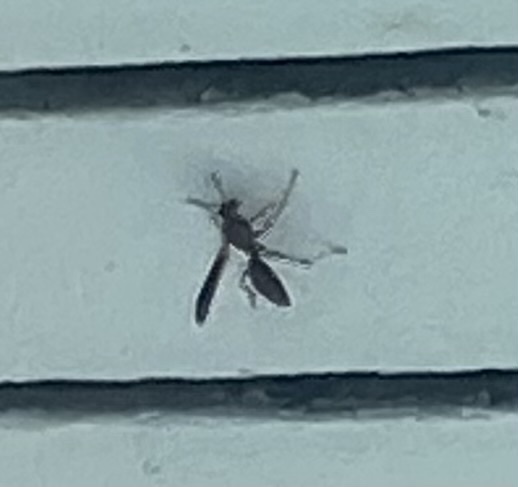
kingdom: Animalia
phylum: Arthropoda
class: Insecta
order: Hymenoptera
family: Vespidae
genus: Fuscopolistes
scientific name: Fuscopolistes
